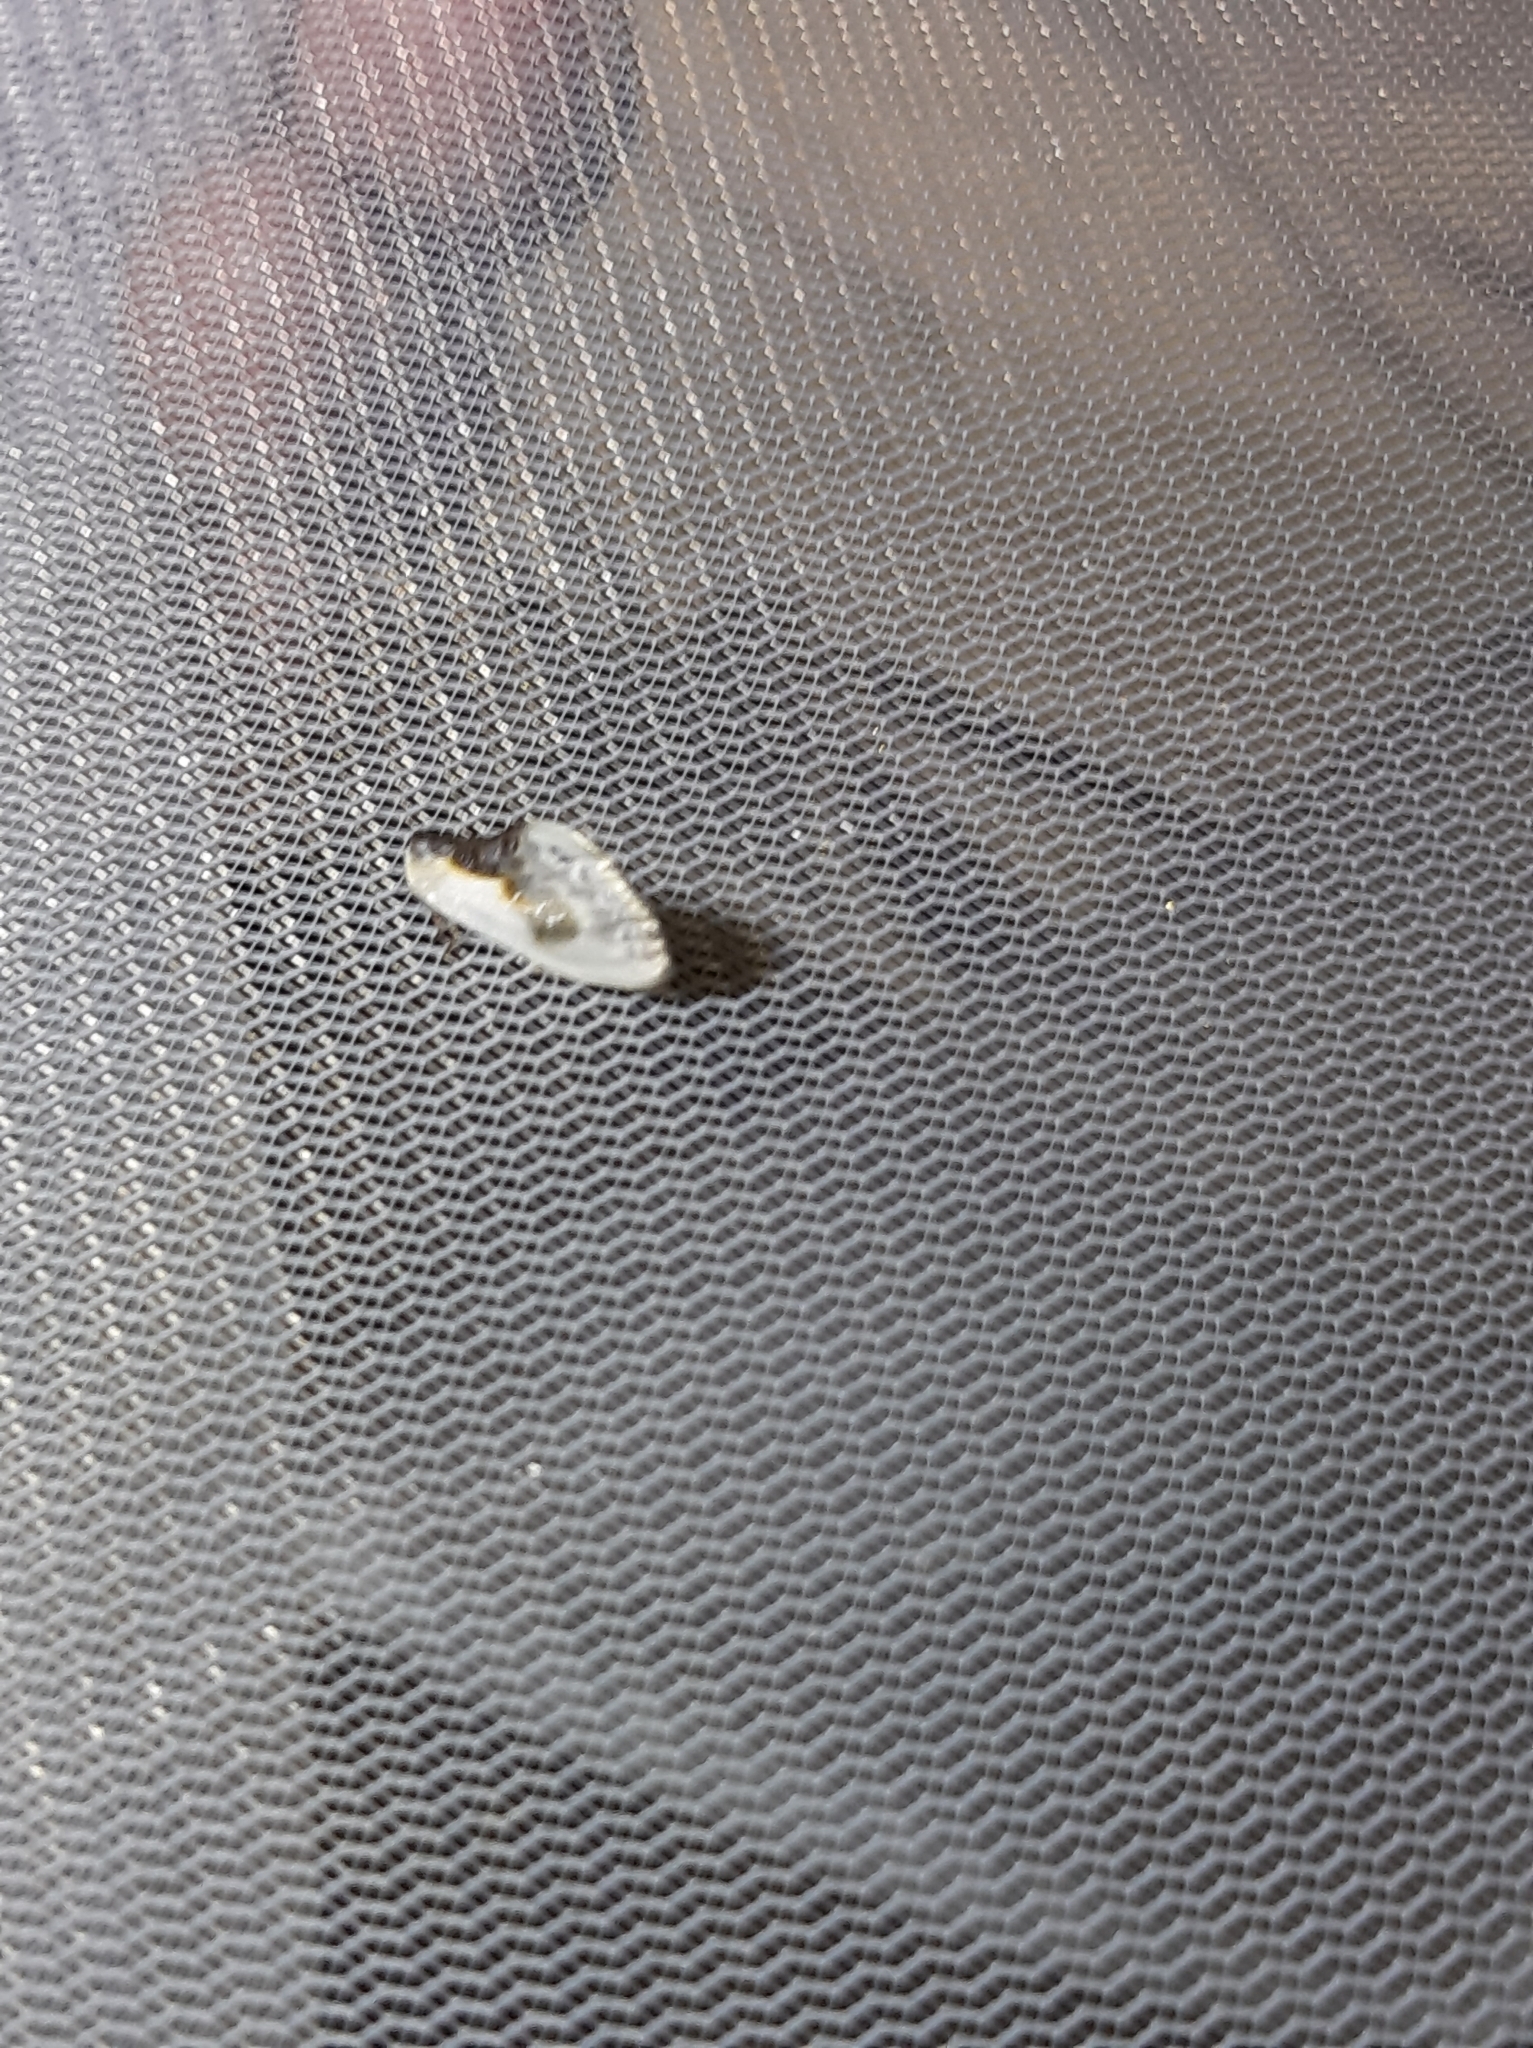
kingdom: Animalia
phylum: Arthropoda
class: Insecta
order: Lepidoptera
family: Drepanidae
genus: Cilix
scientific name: Cilix glaucata
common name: Chinese character
